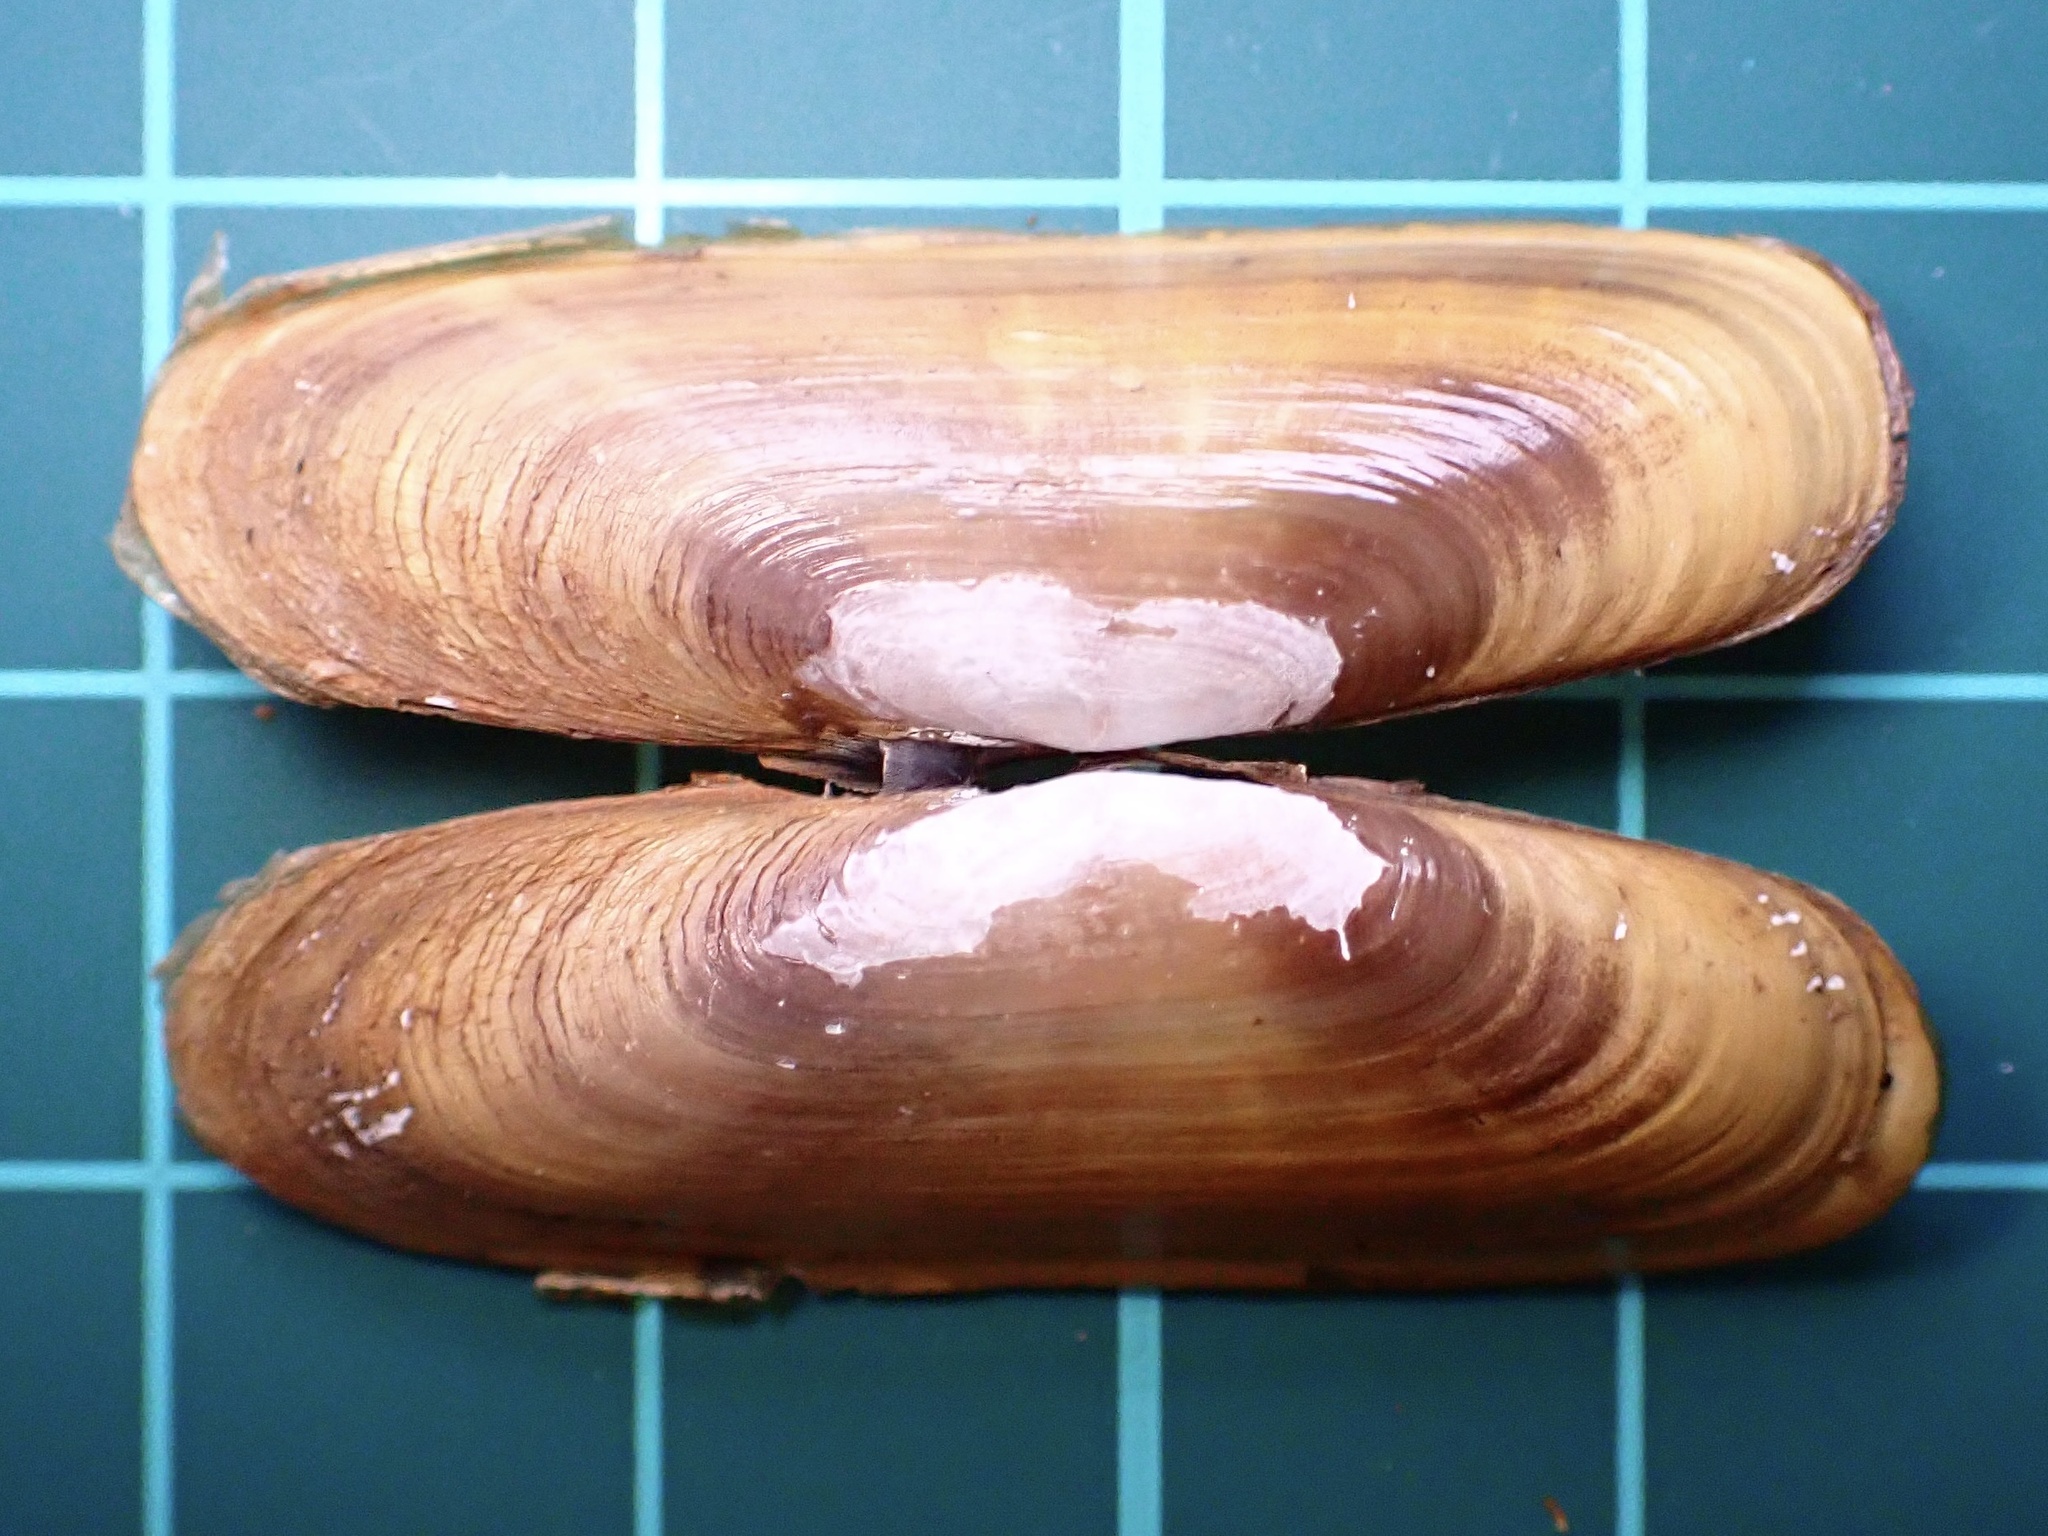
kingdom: Animalia
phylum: Mollusca
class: Bivalvia
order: Cardiida
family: Solecurtidae
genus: Tagelus
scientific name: Tagelus subteres
